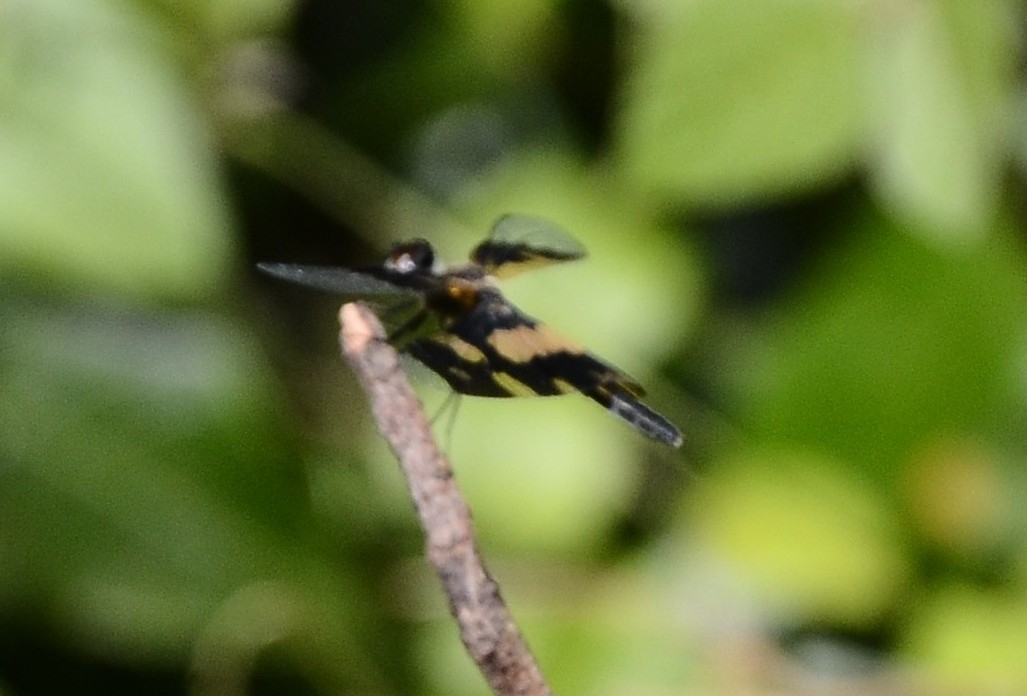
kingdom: Animalia
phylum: Arthropoda
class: Insecta
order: Odonata
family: Libellulidae
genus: Rhyothemis
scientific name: Rhyothemis variegata
